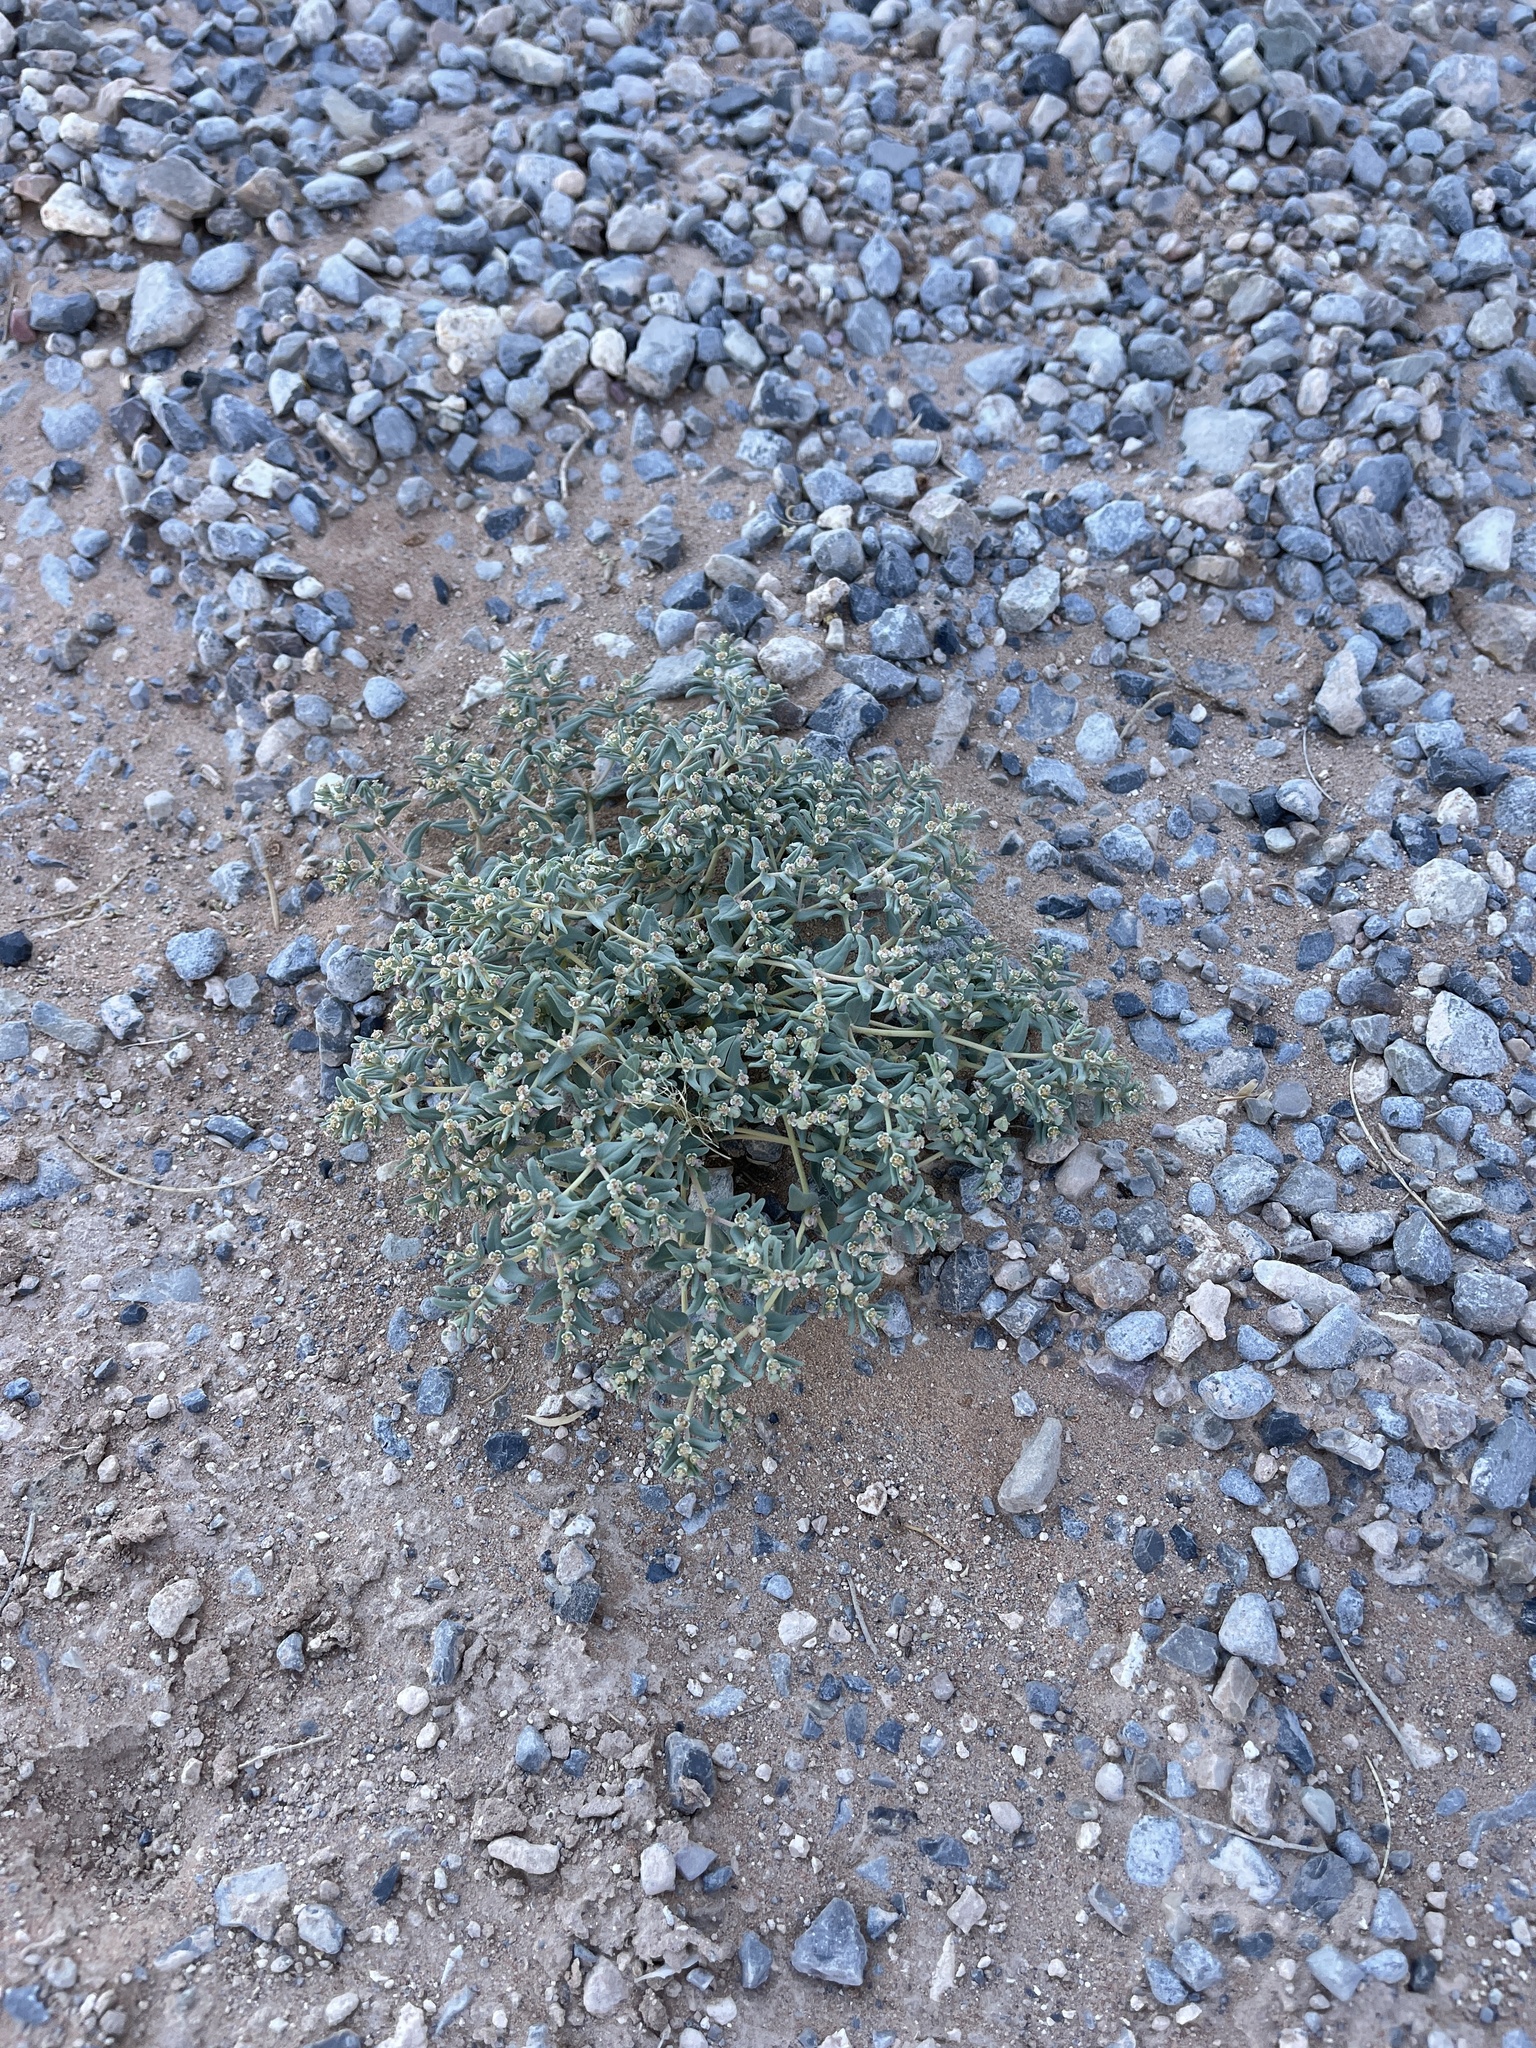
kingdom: Plantae
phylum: Tracheophyta
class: Magnoliopsida
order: Malpighiales
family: Euphorbiaceae
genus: Euphorbia
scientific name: Euphorbia lata
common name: Hoary euphorbia
